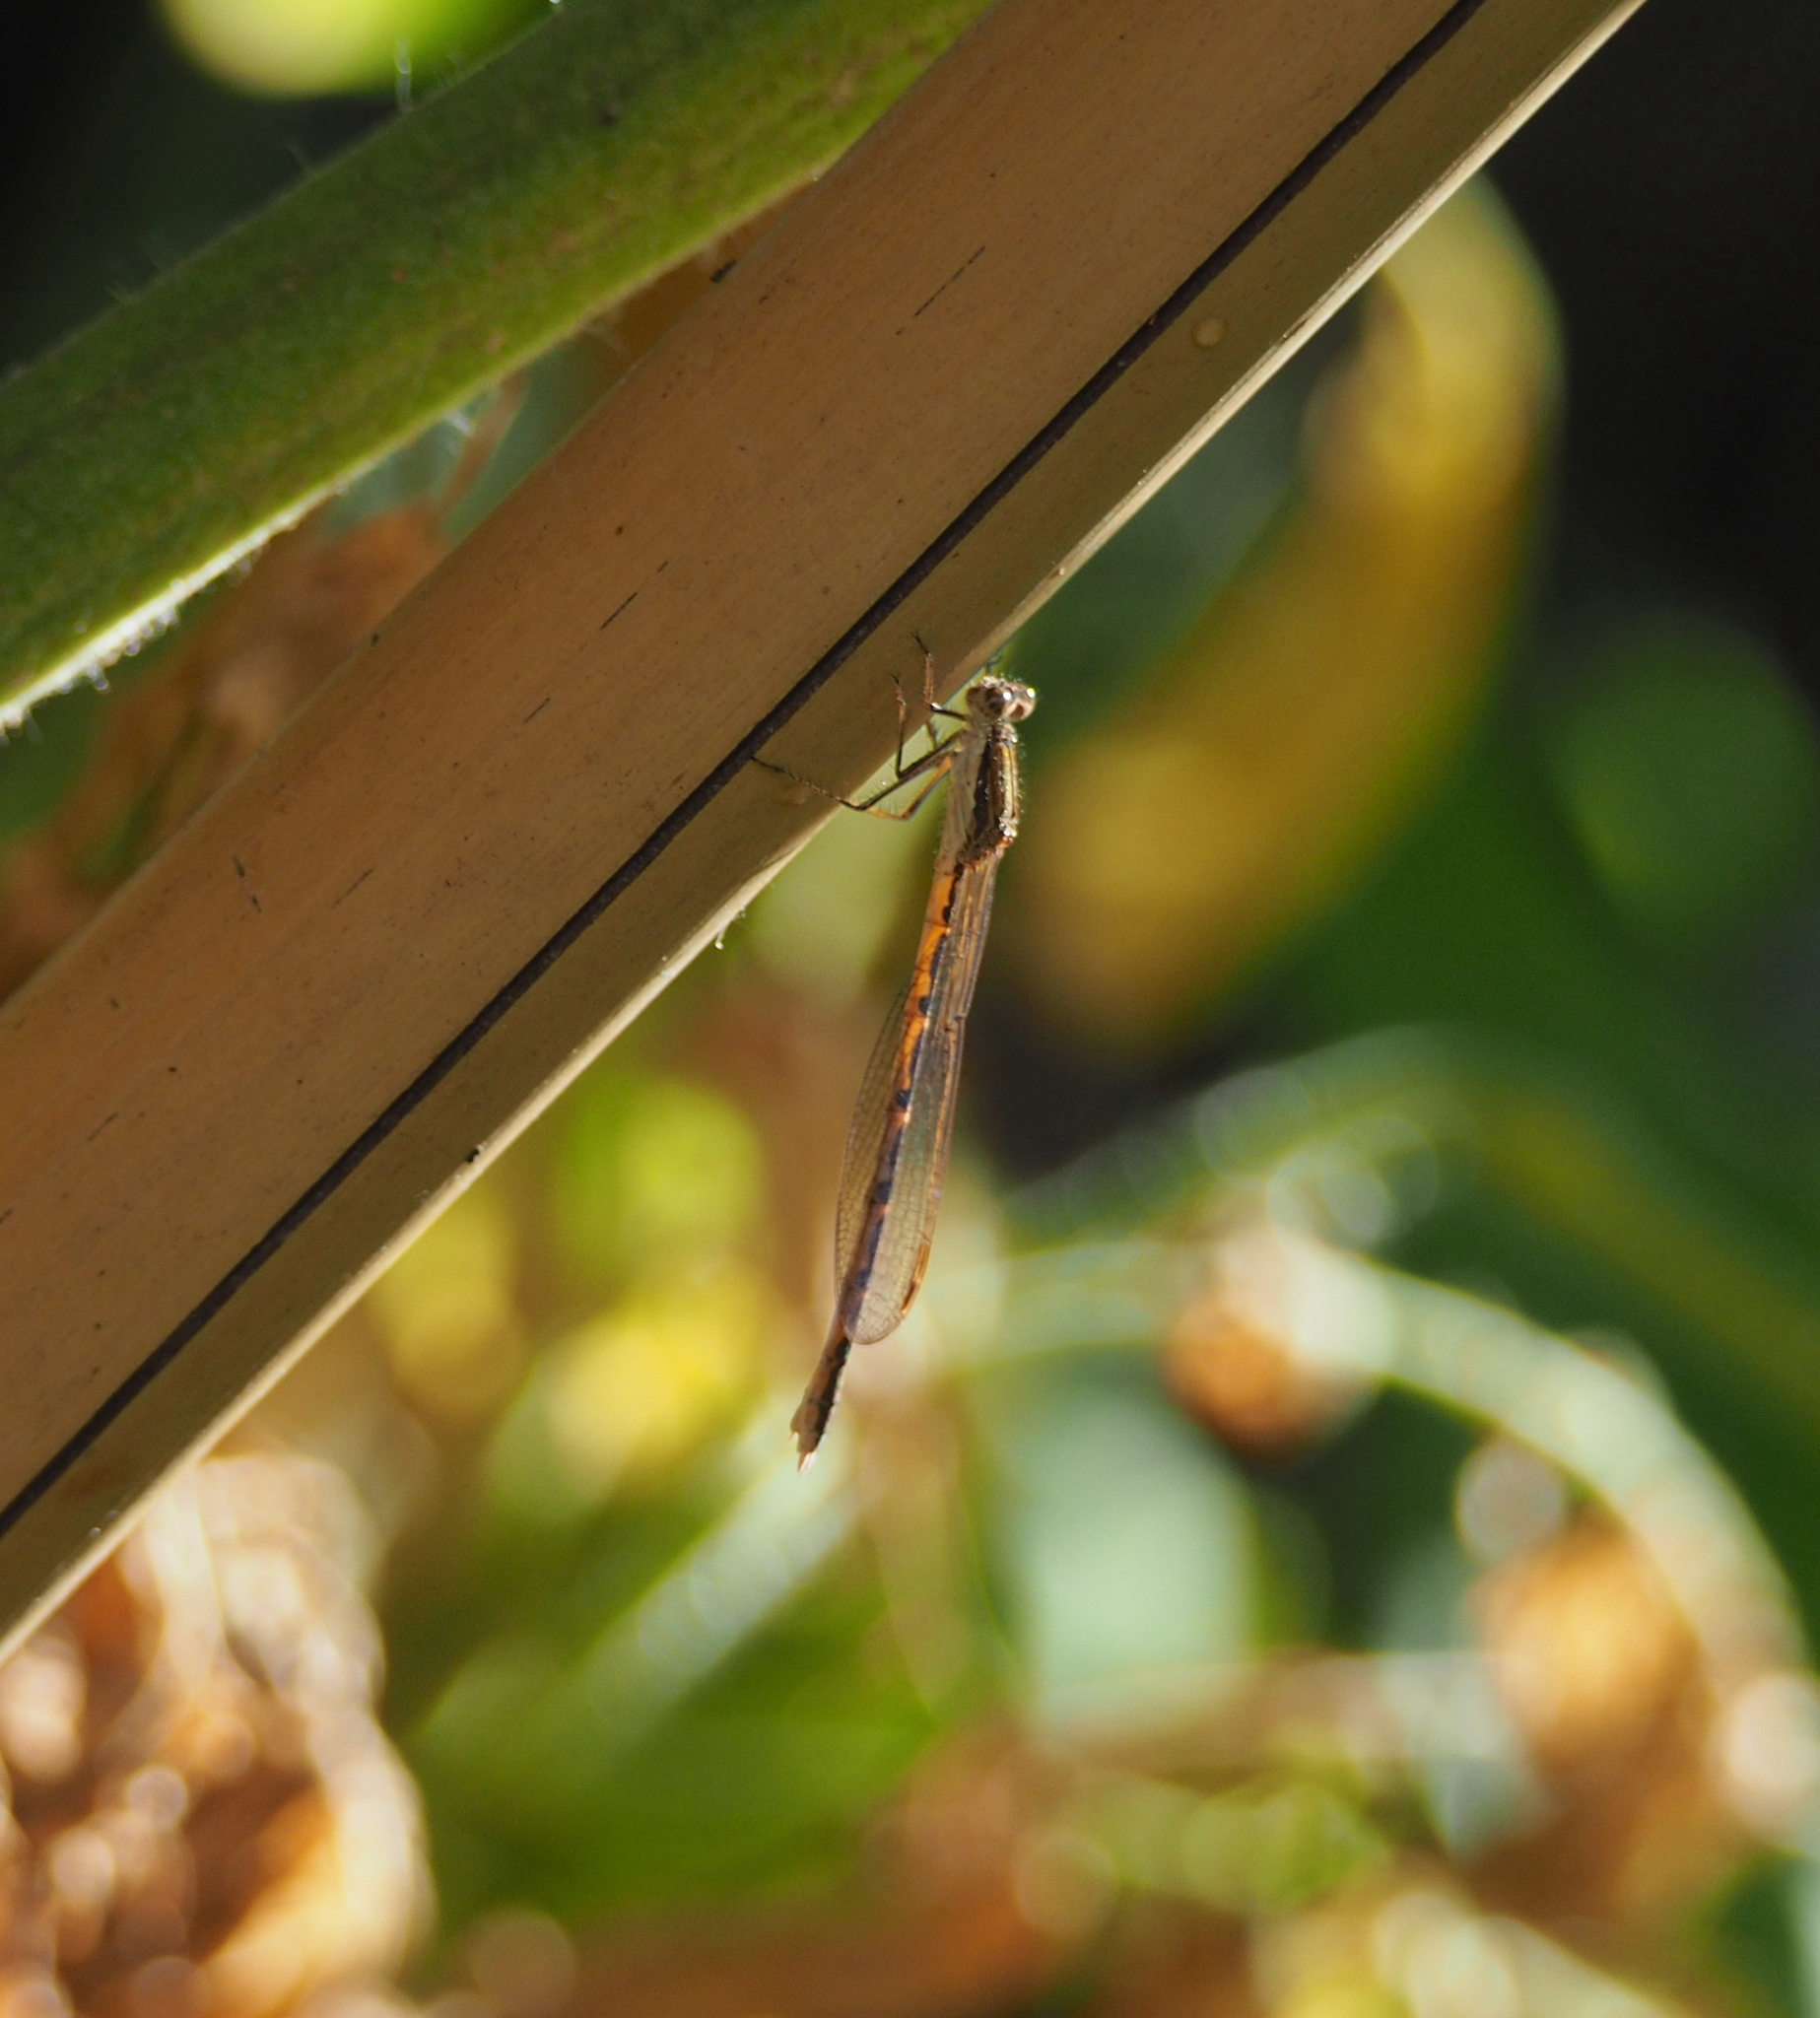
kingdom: Animalia
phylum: Arthropoda
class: Insecta
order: Odonata
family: Lestidae
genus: Sympecma
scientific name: Sympecma fusca
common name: Common winter damsel
